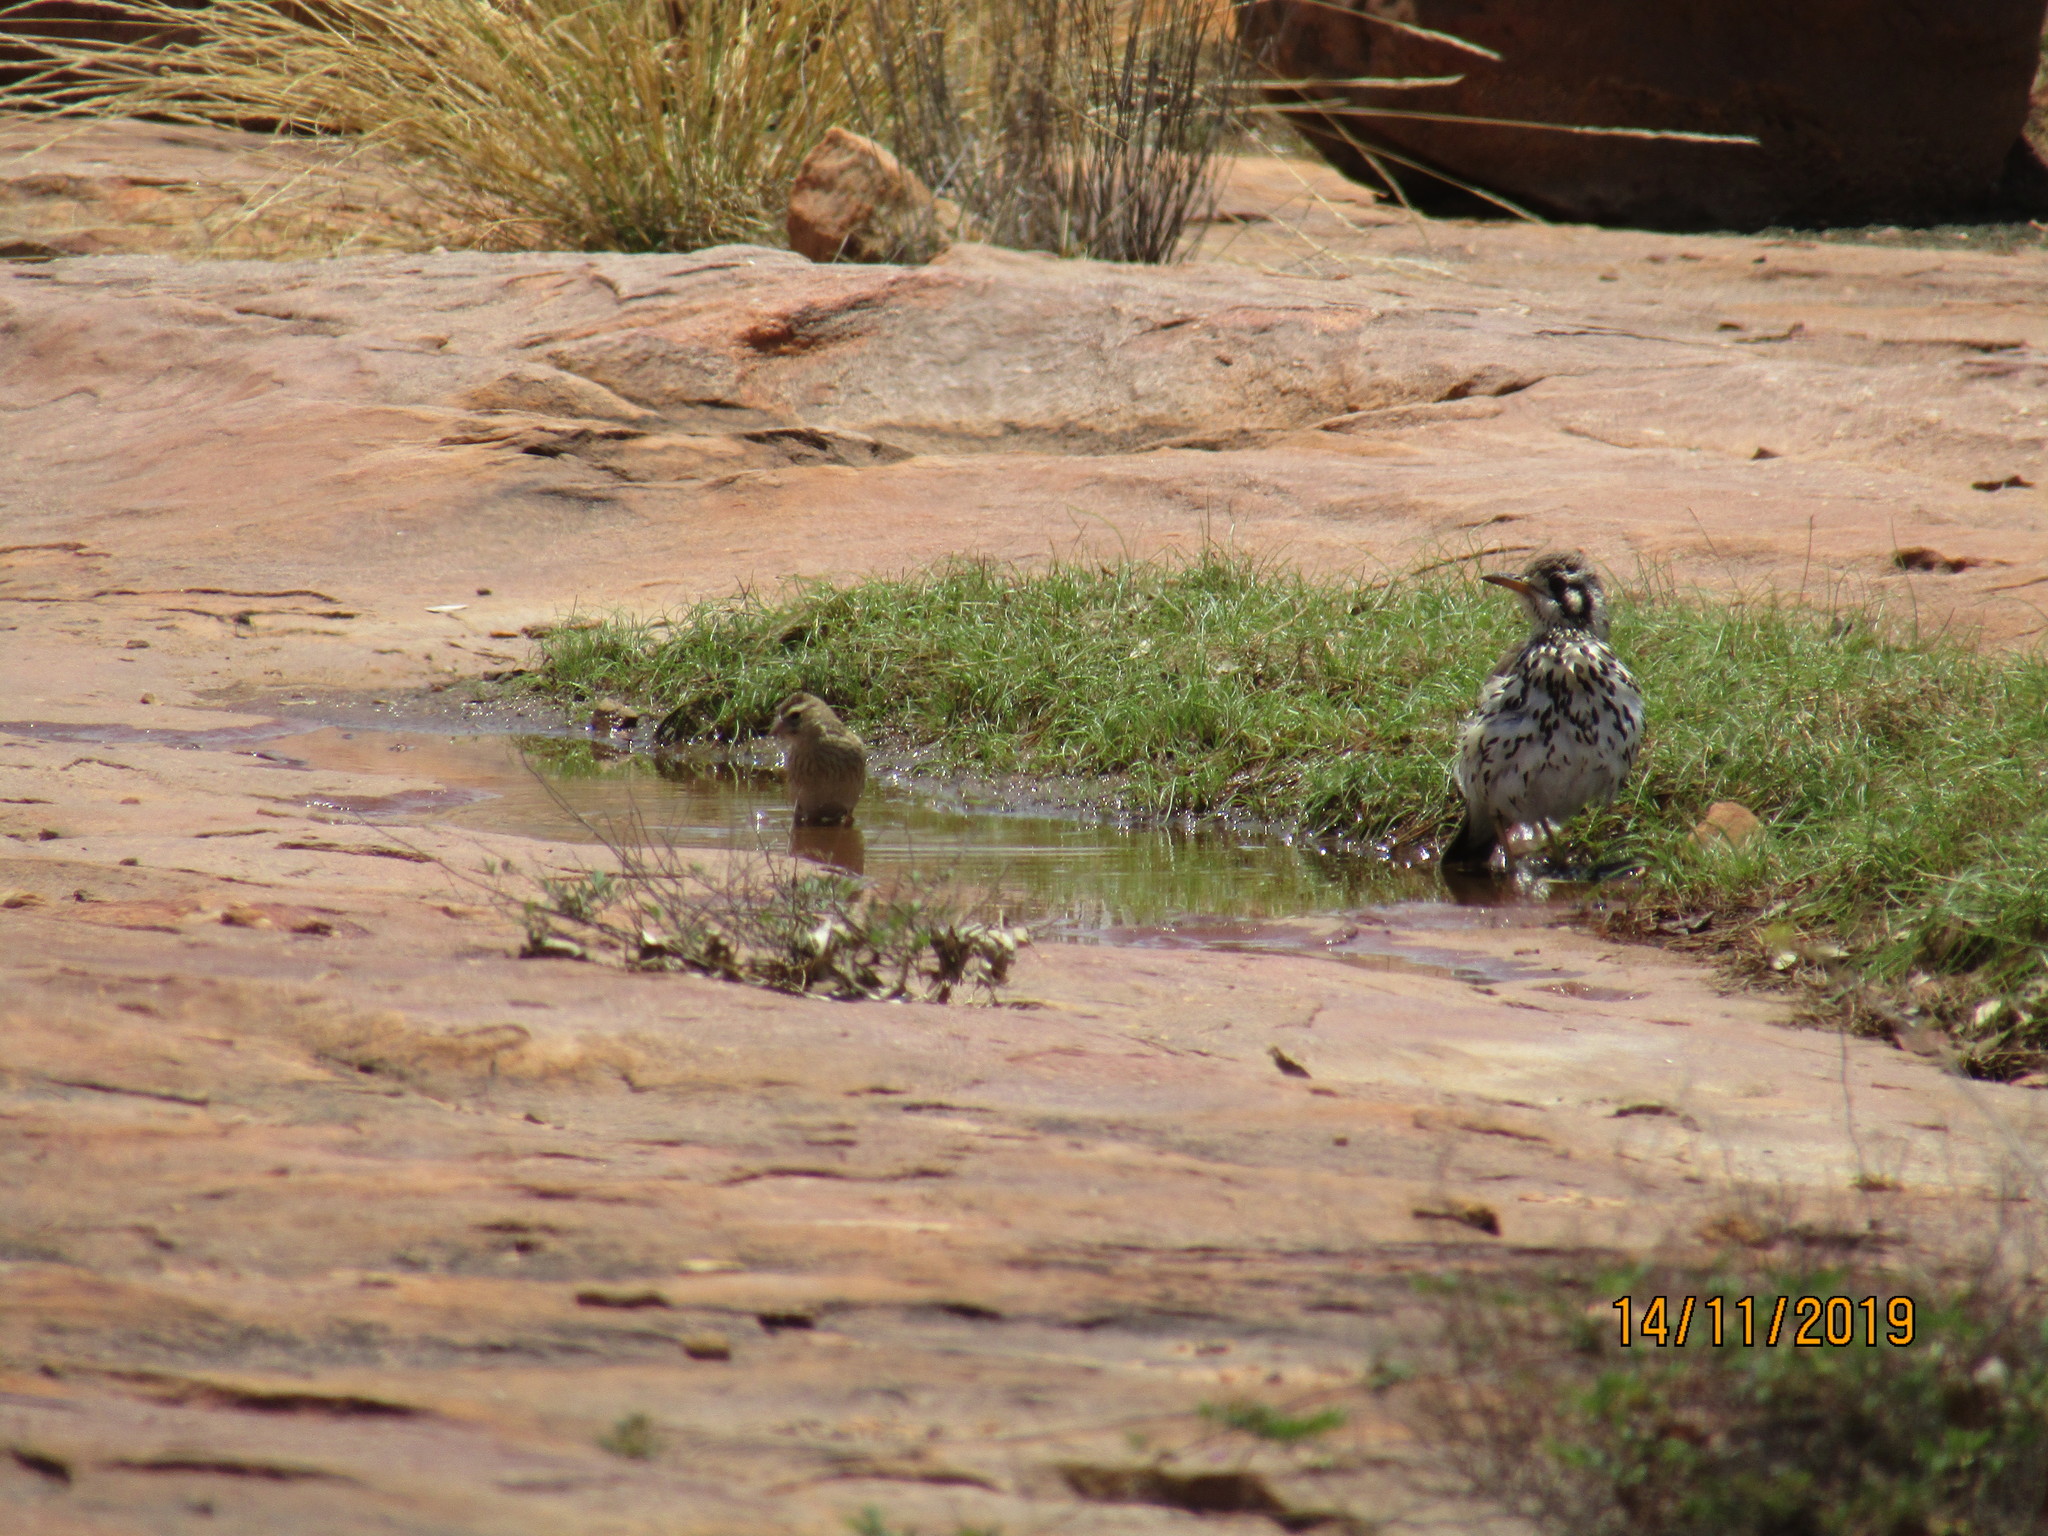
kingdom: Animalia
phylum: Chordata
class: Aves
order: Passeriformes
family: Turdidae
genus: Psophocichla
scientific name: Psophocichla litsitsirupa
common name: Groundscraper thrush
